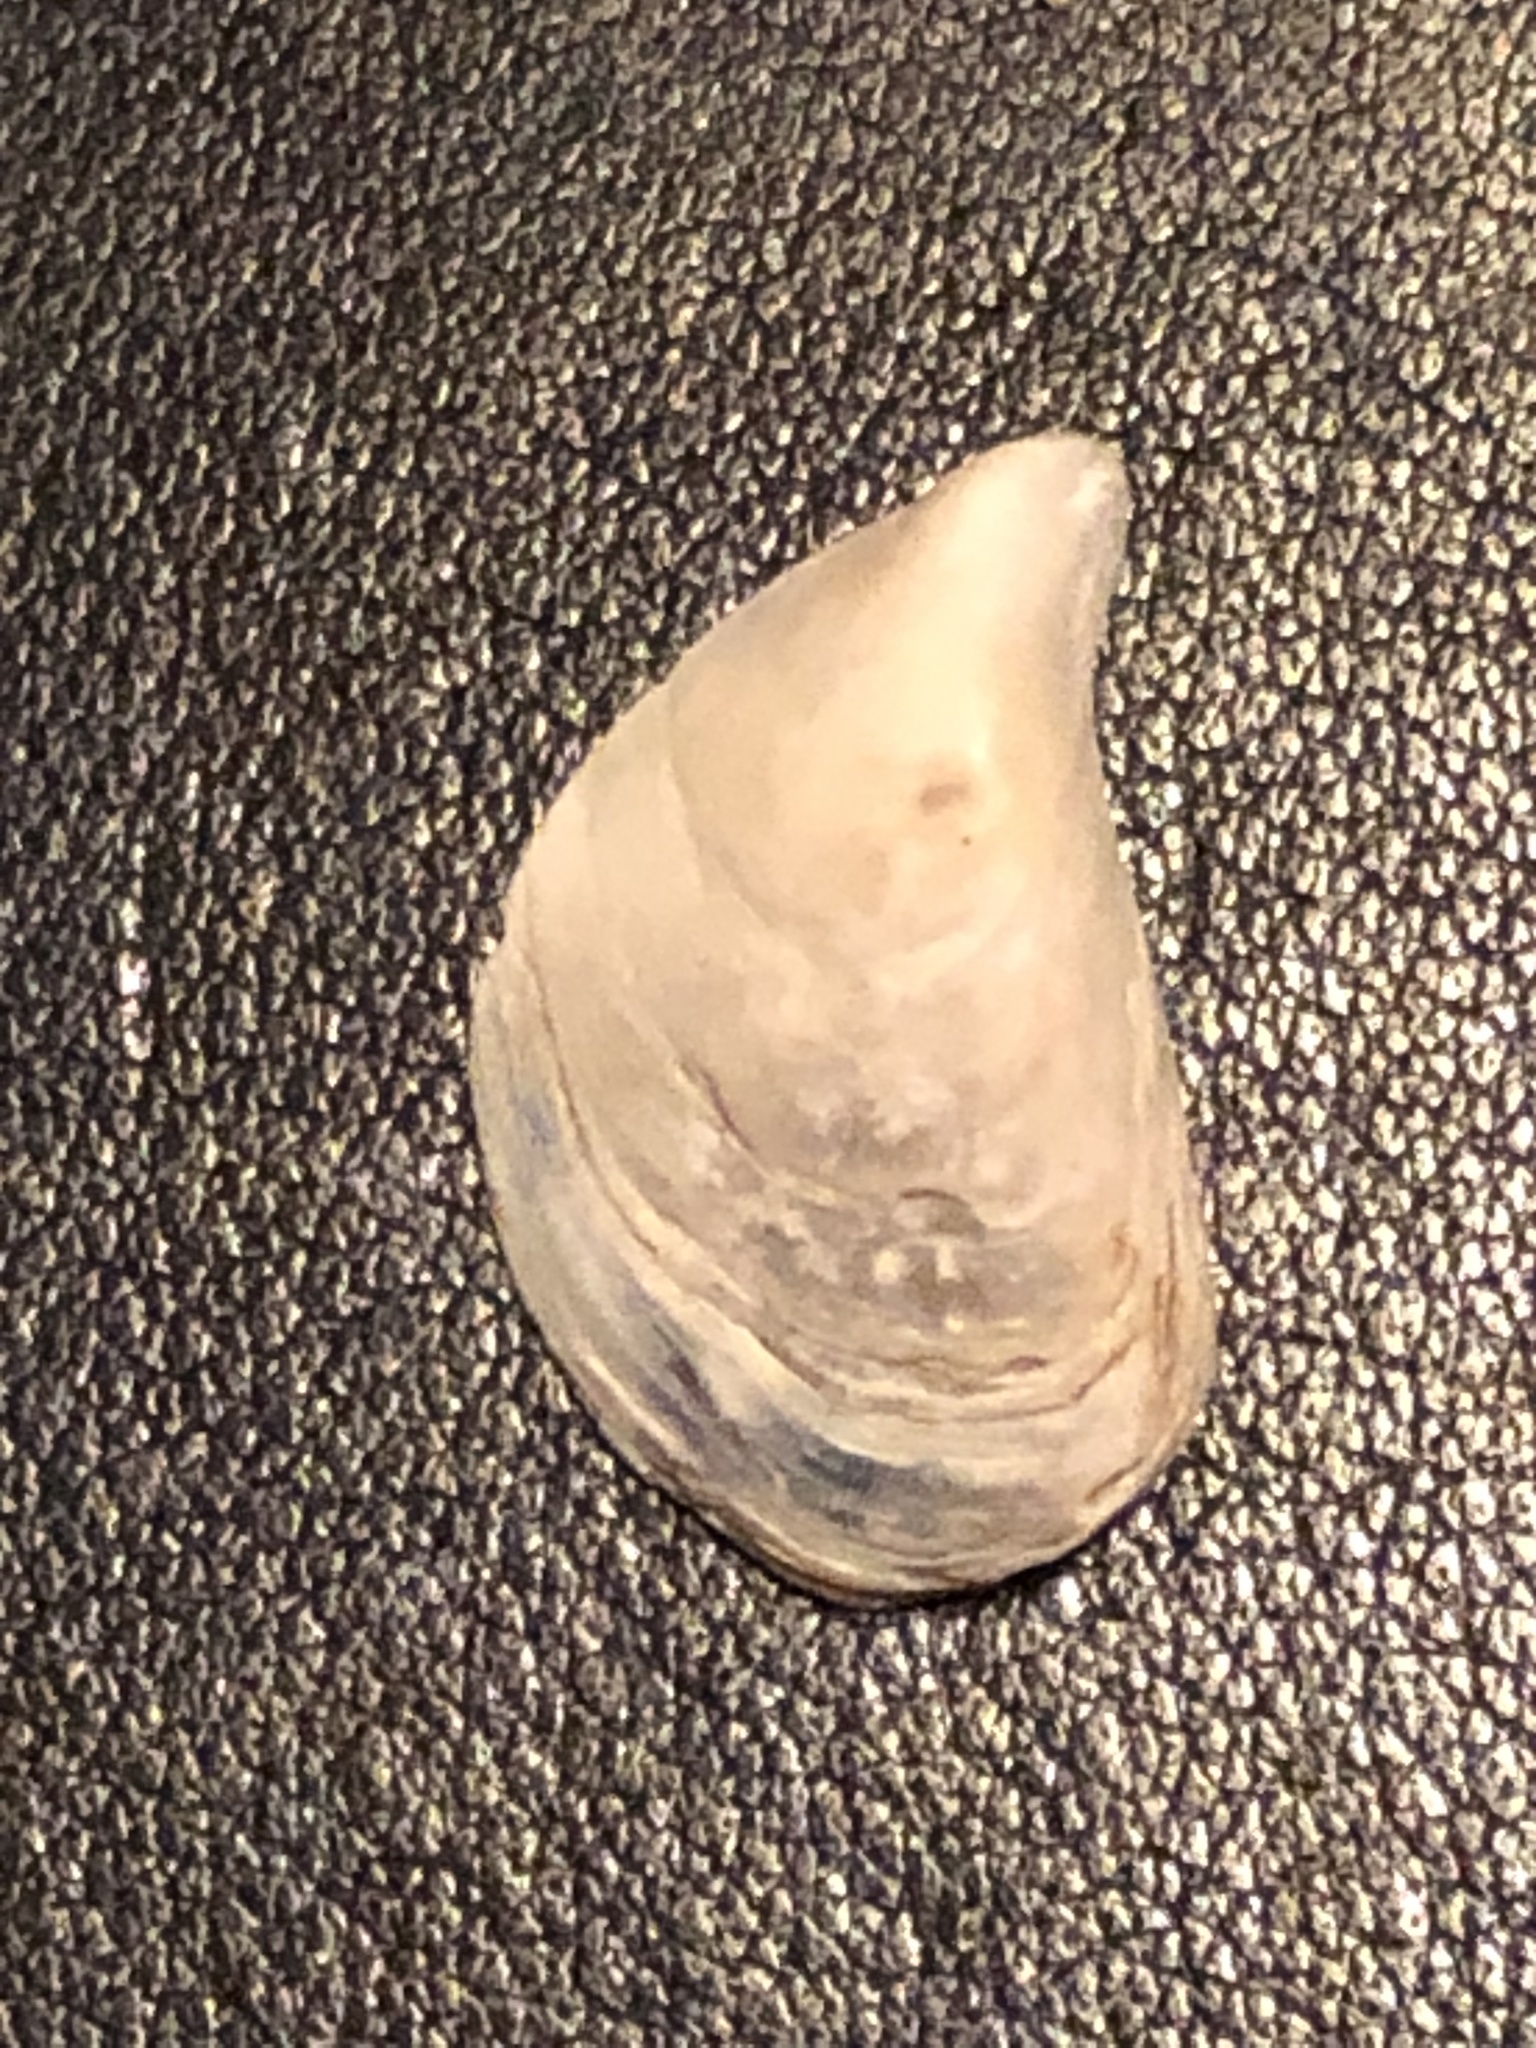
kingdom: Animalia
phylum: Mollusca
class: Bivalvia
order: Myida
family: Dreissenidae
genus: Dreissena
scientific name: Dreissena bugensis
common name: Quagga mussel
